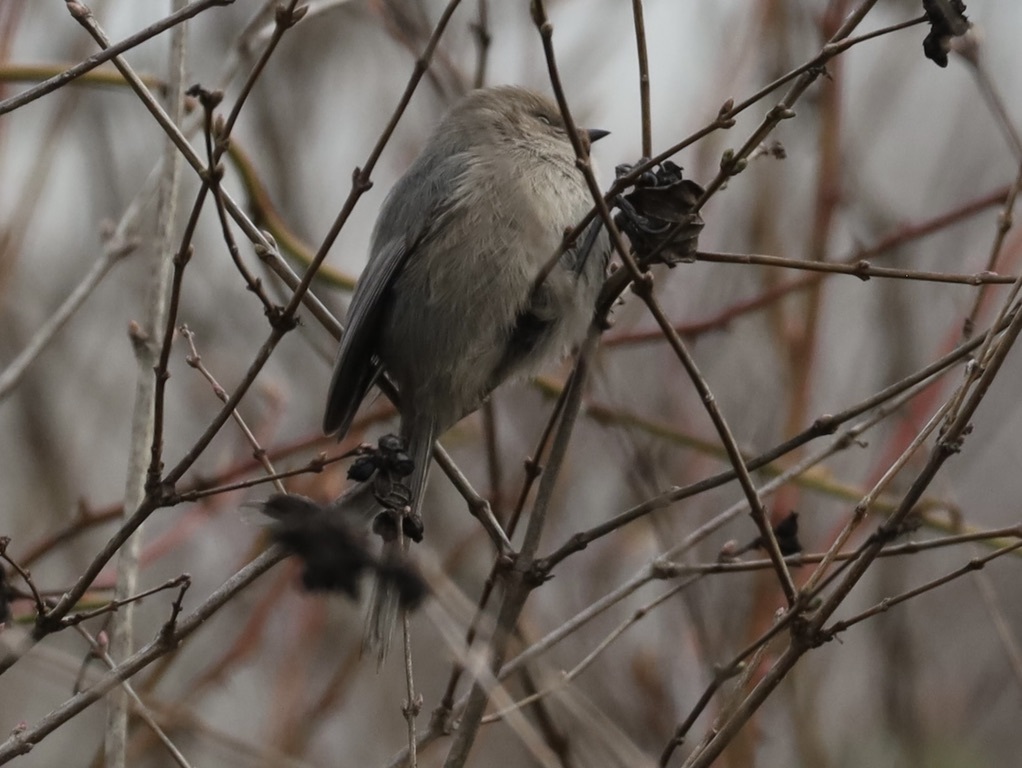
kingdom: Animalia
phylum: Chordata
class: Aves
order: Passeriformes
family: Aegithalidae
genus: Psaltriparus
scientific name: Psaltriparus minimus
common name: American bushtit
